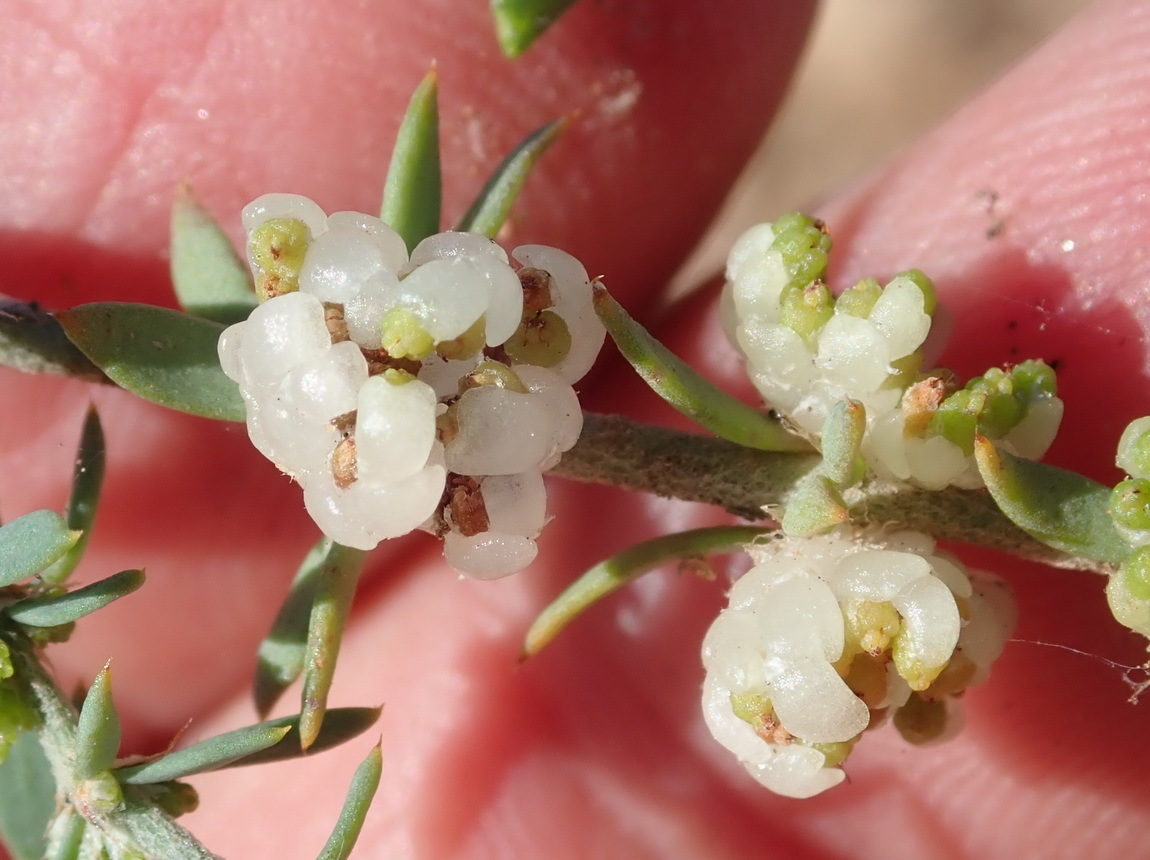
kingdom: Plantae
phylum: Tracheophyta
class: Magnoliopsida
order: Caryophyllales
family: Caryophyllaceae
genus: Pollichia
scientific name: Pollichia campestris
